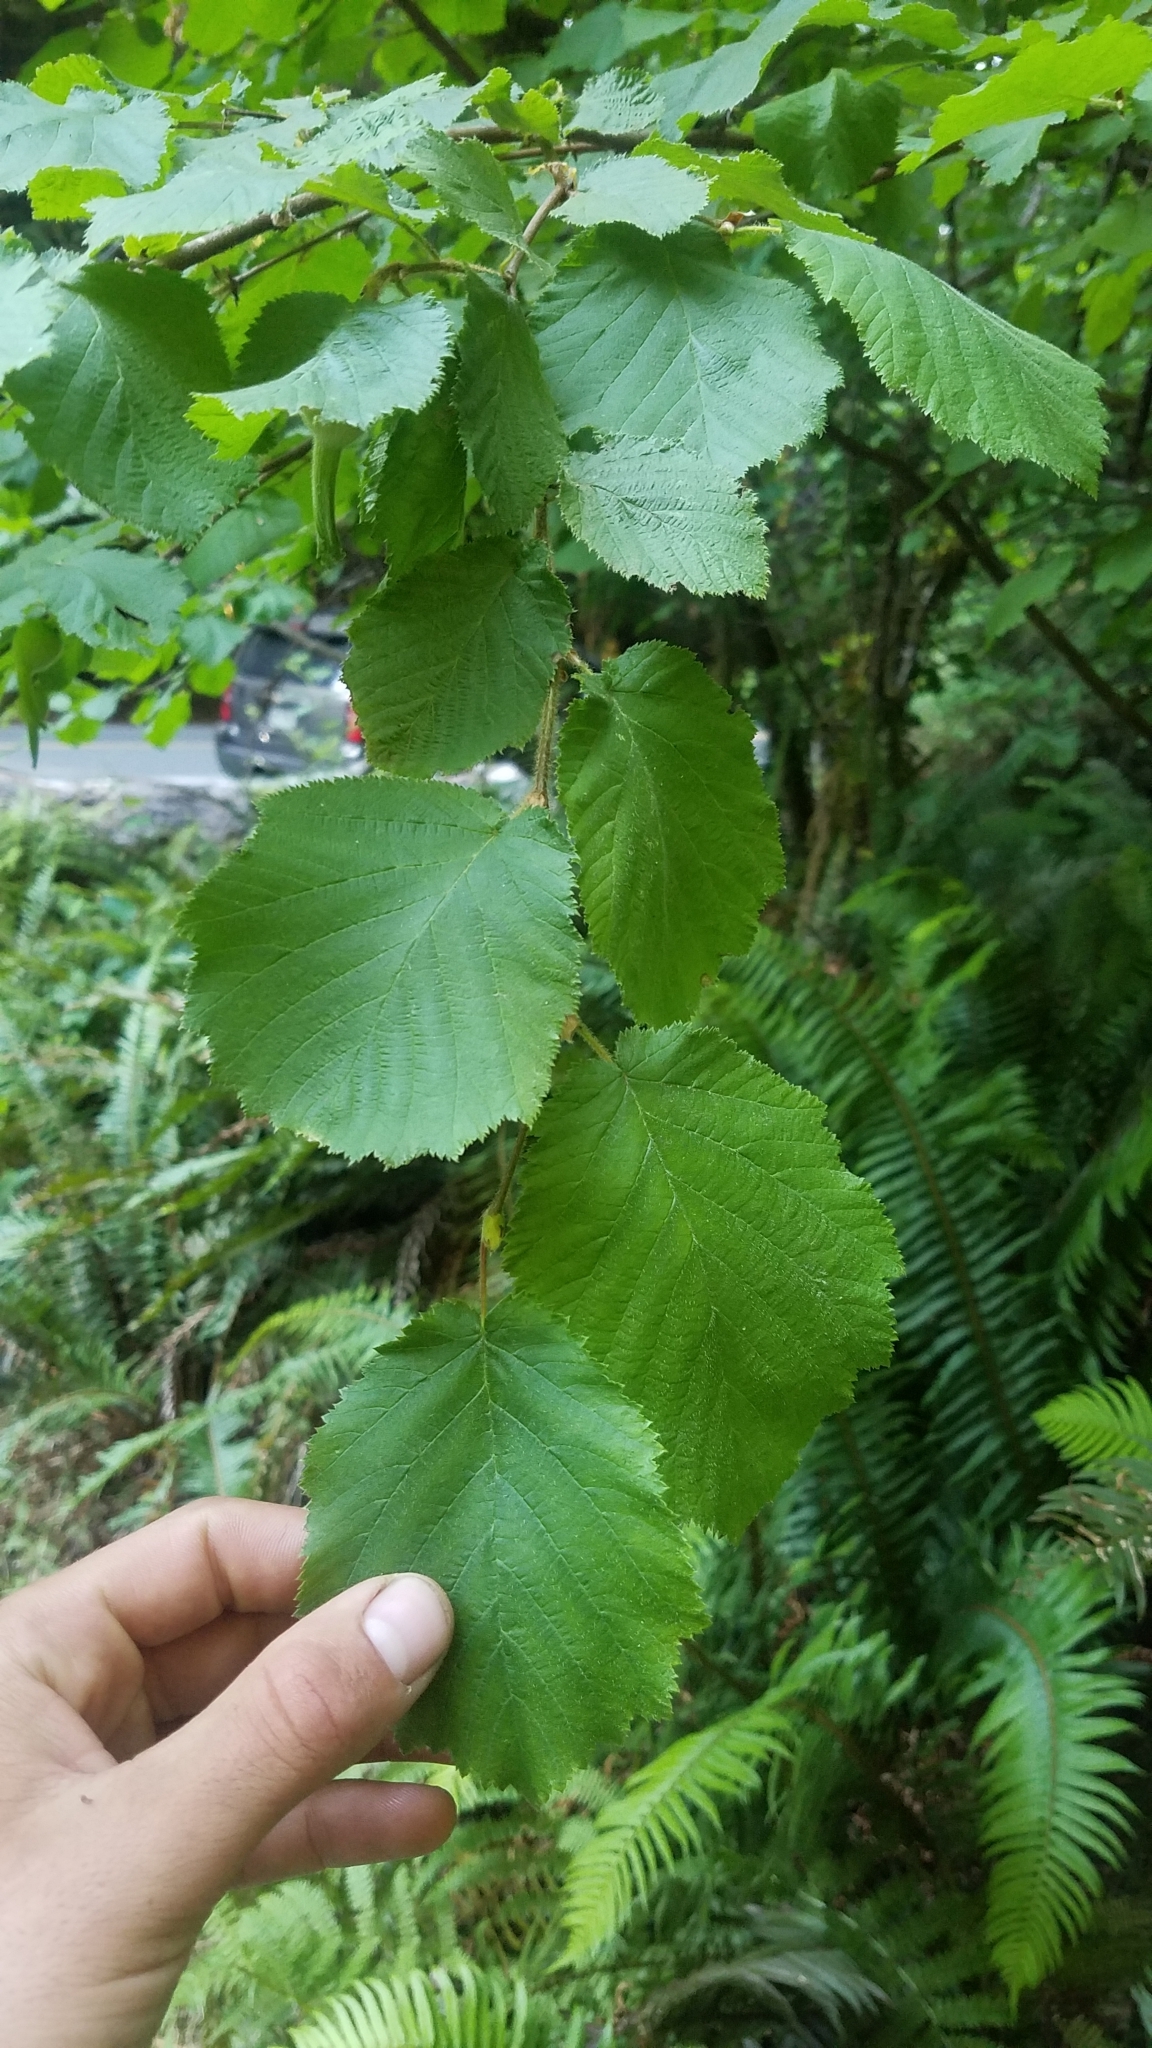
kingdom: Plantae
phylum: Tracheophyta
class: Magnoliopsida
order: Fagales
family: Betulaceae
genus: Corylus
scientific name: Corylus cornuta
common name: Beaked hazel
